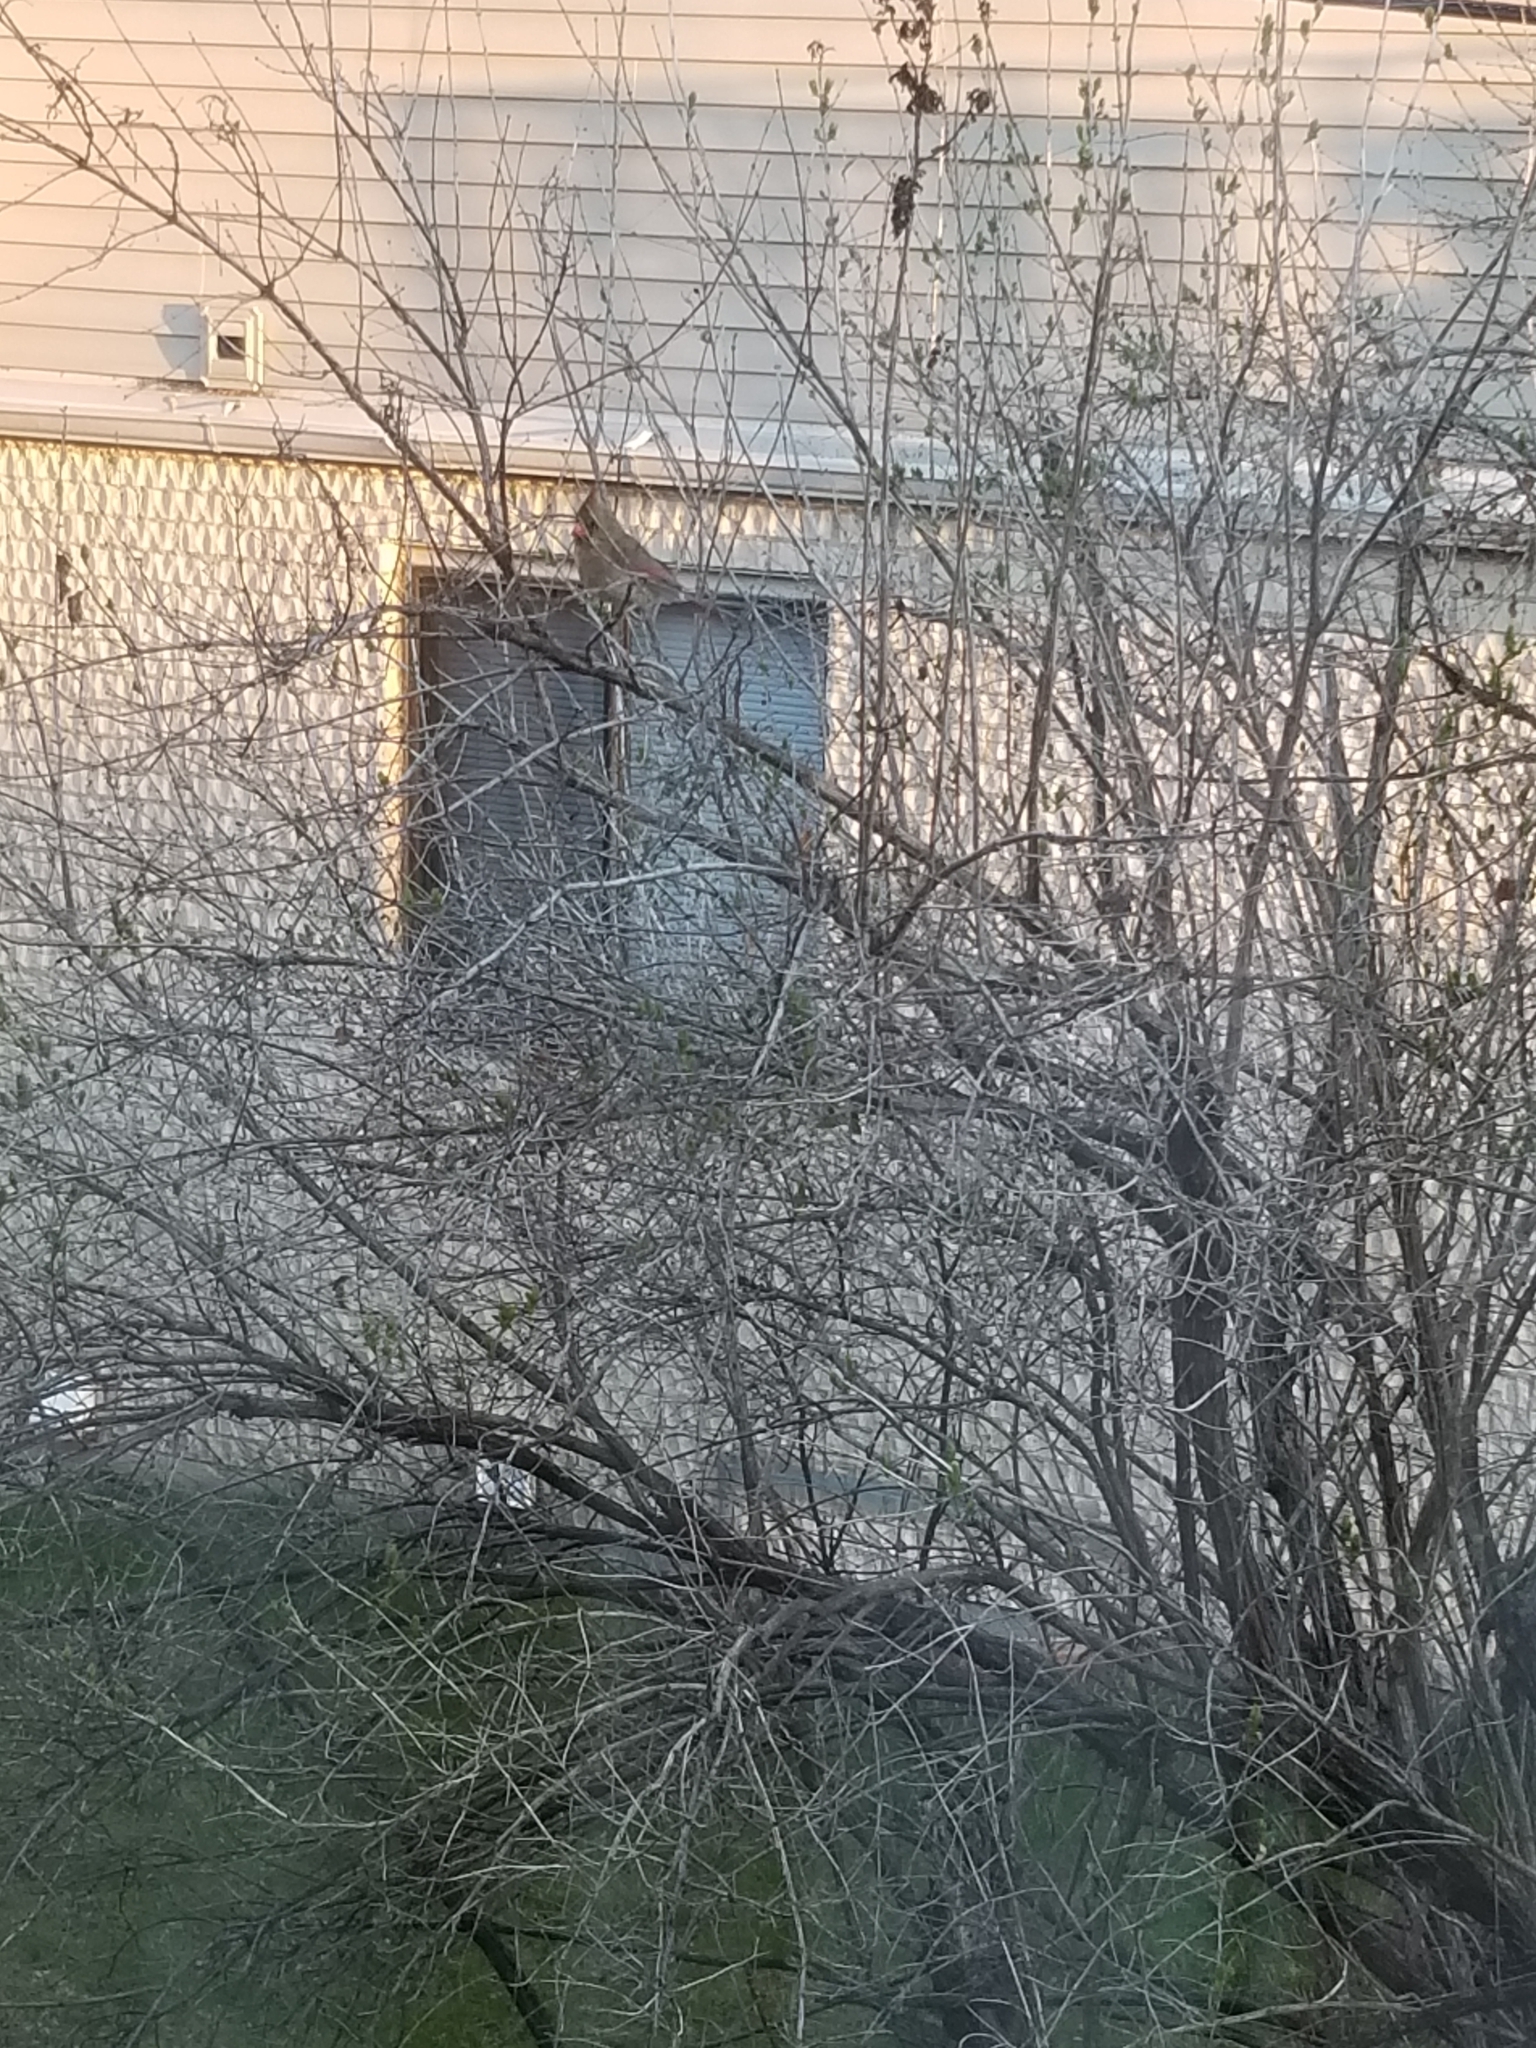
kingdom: Animalia
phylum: Chordata
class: Aves
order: Passeriformes
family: Cardinalidae
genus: Cardinalis
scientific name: Cardinalis cardinalis
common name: Northern cardinal
